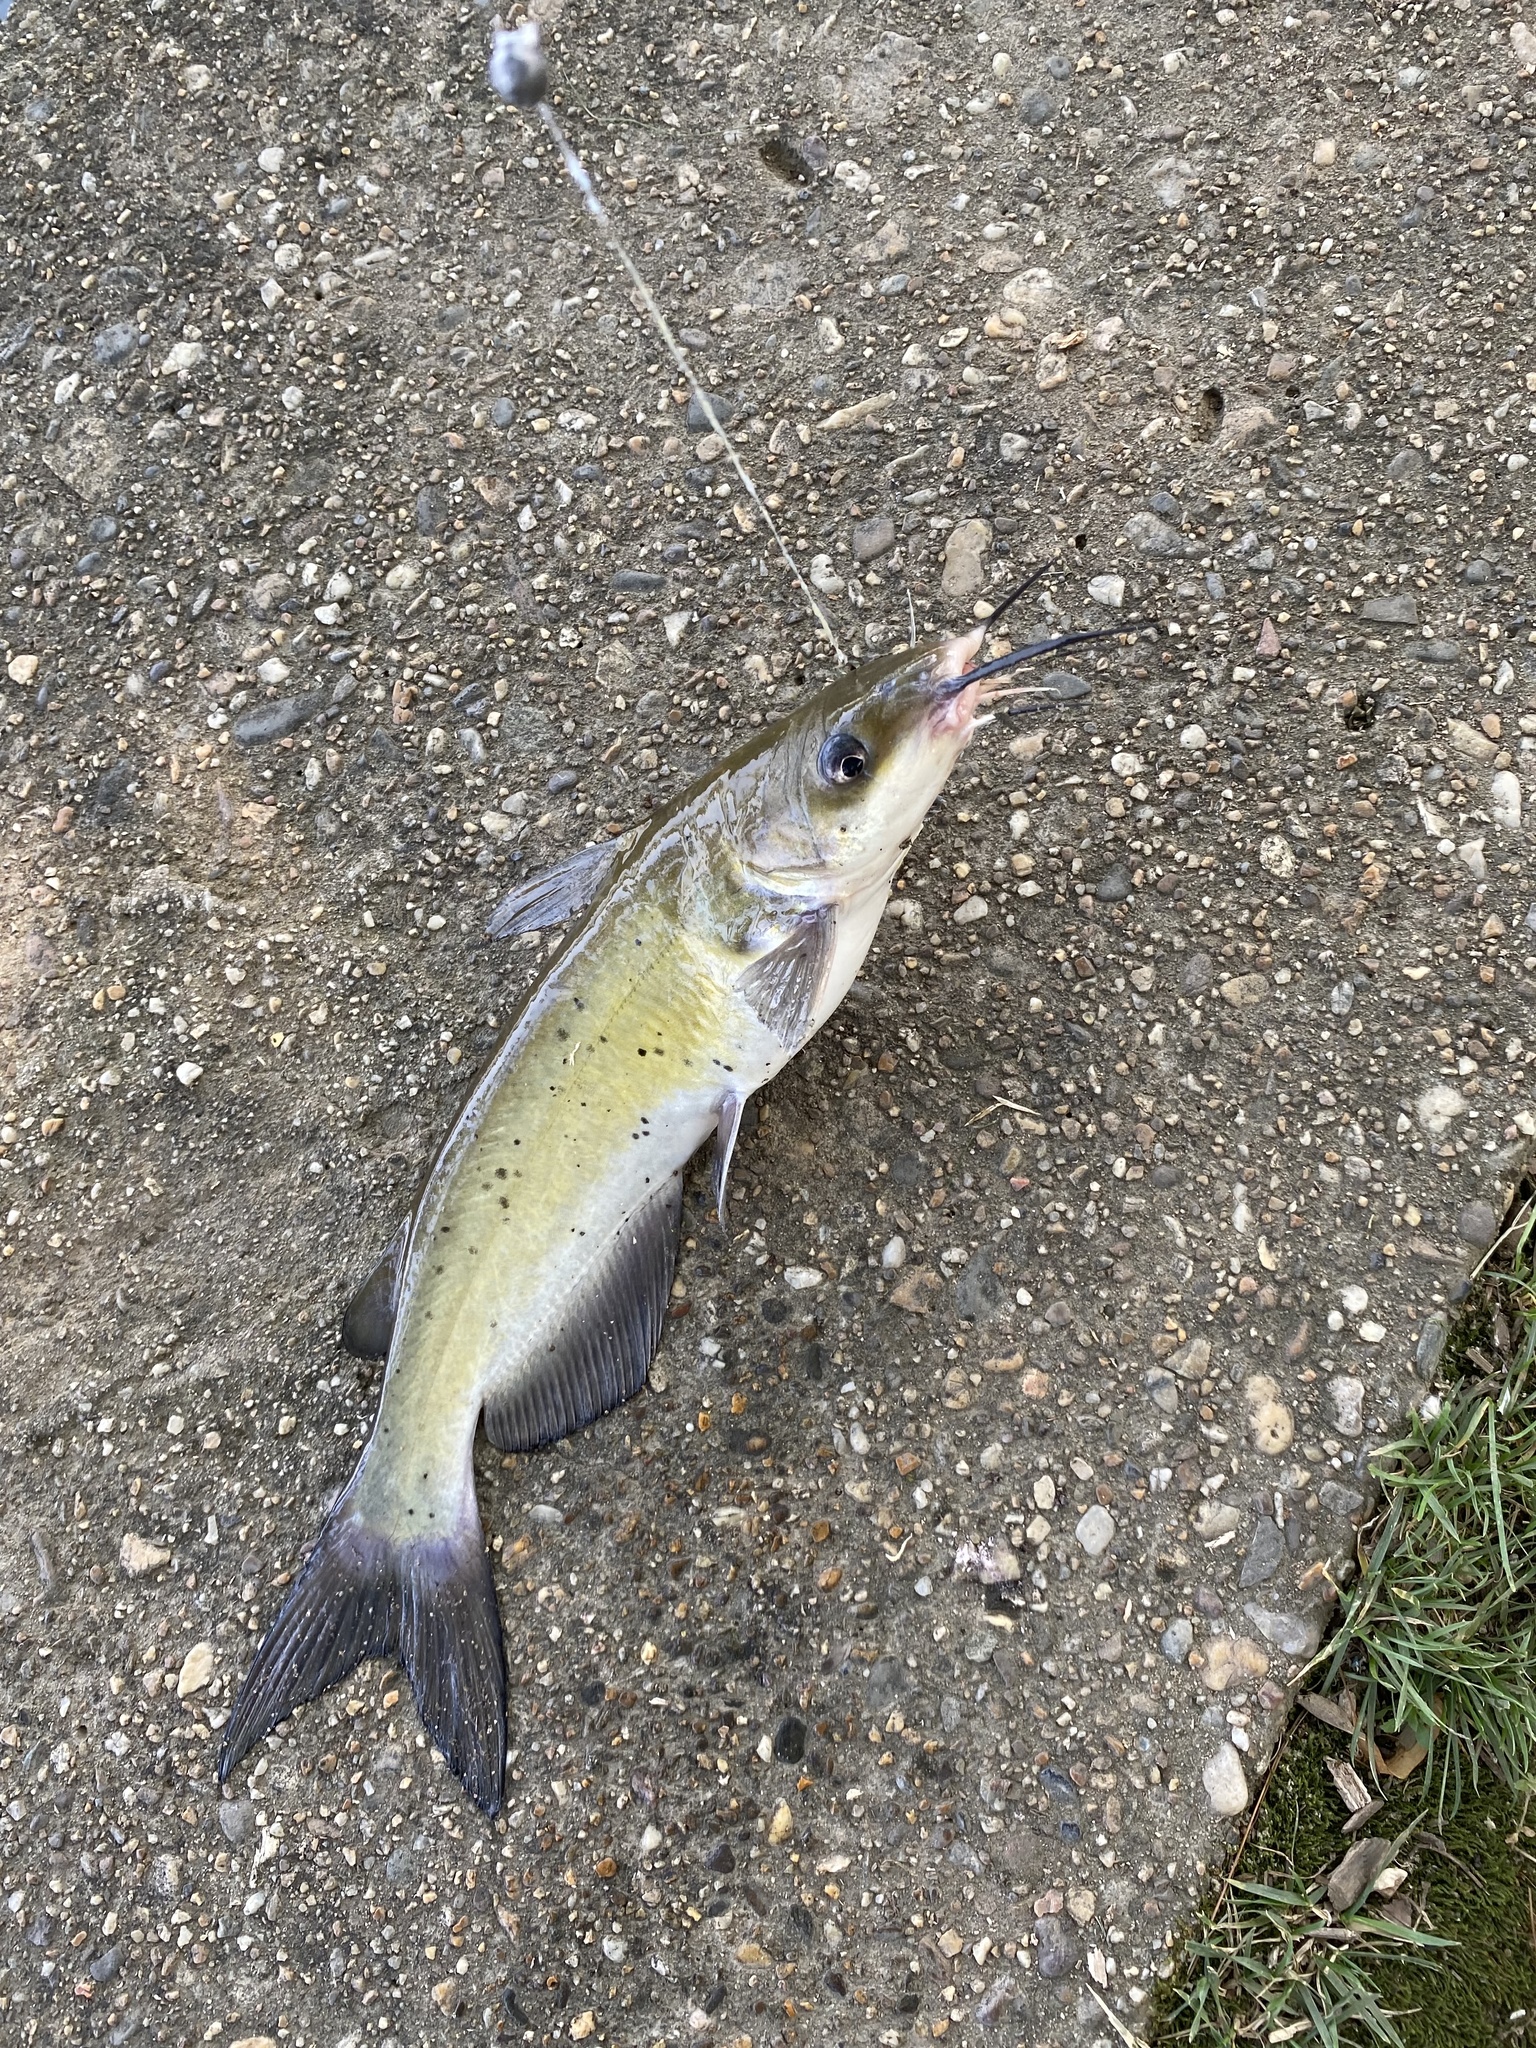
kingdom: Animalia
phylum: Chordata
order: Siluriformes
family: Ictaluridae
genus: Ictalurus
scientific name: Ictalurus punctatus
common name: Channel catfish
